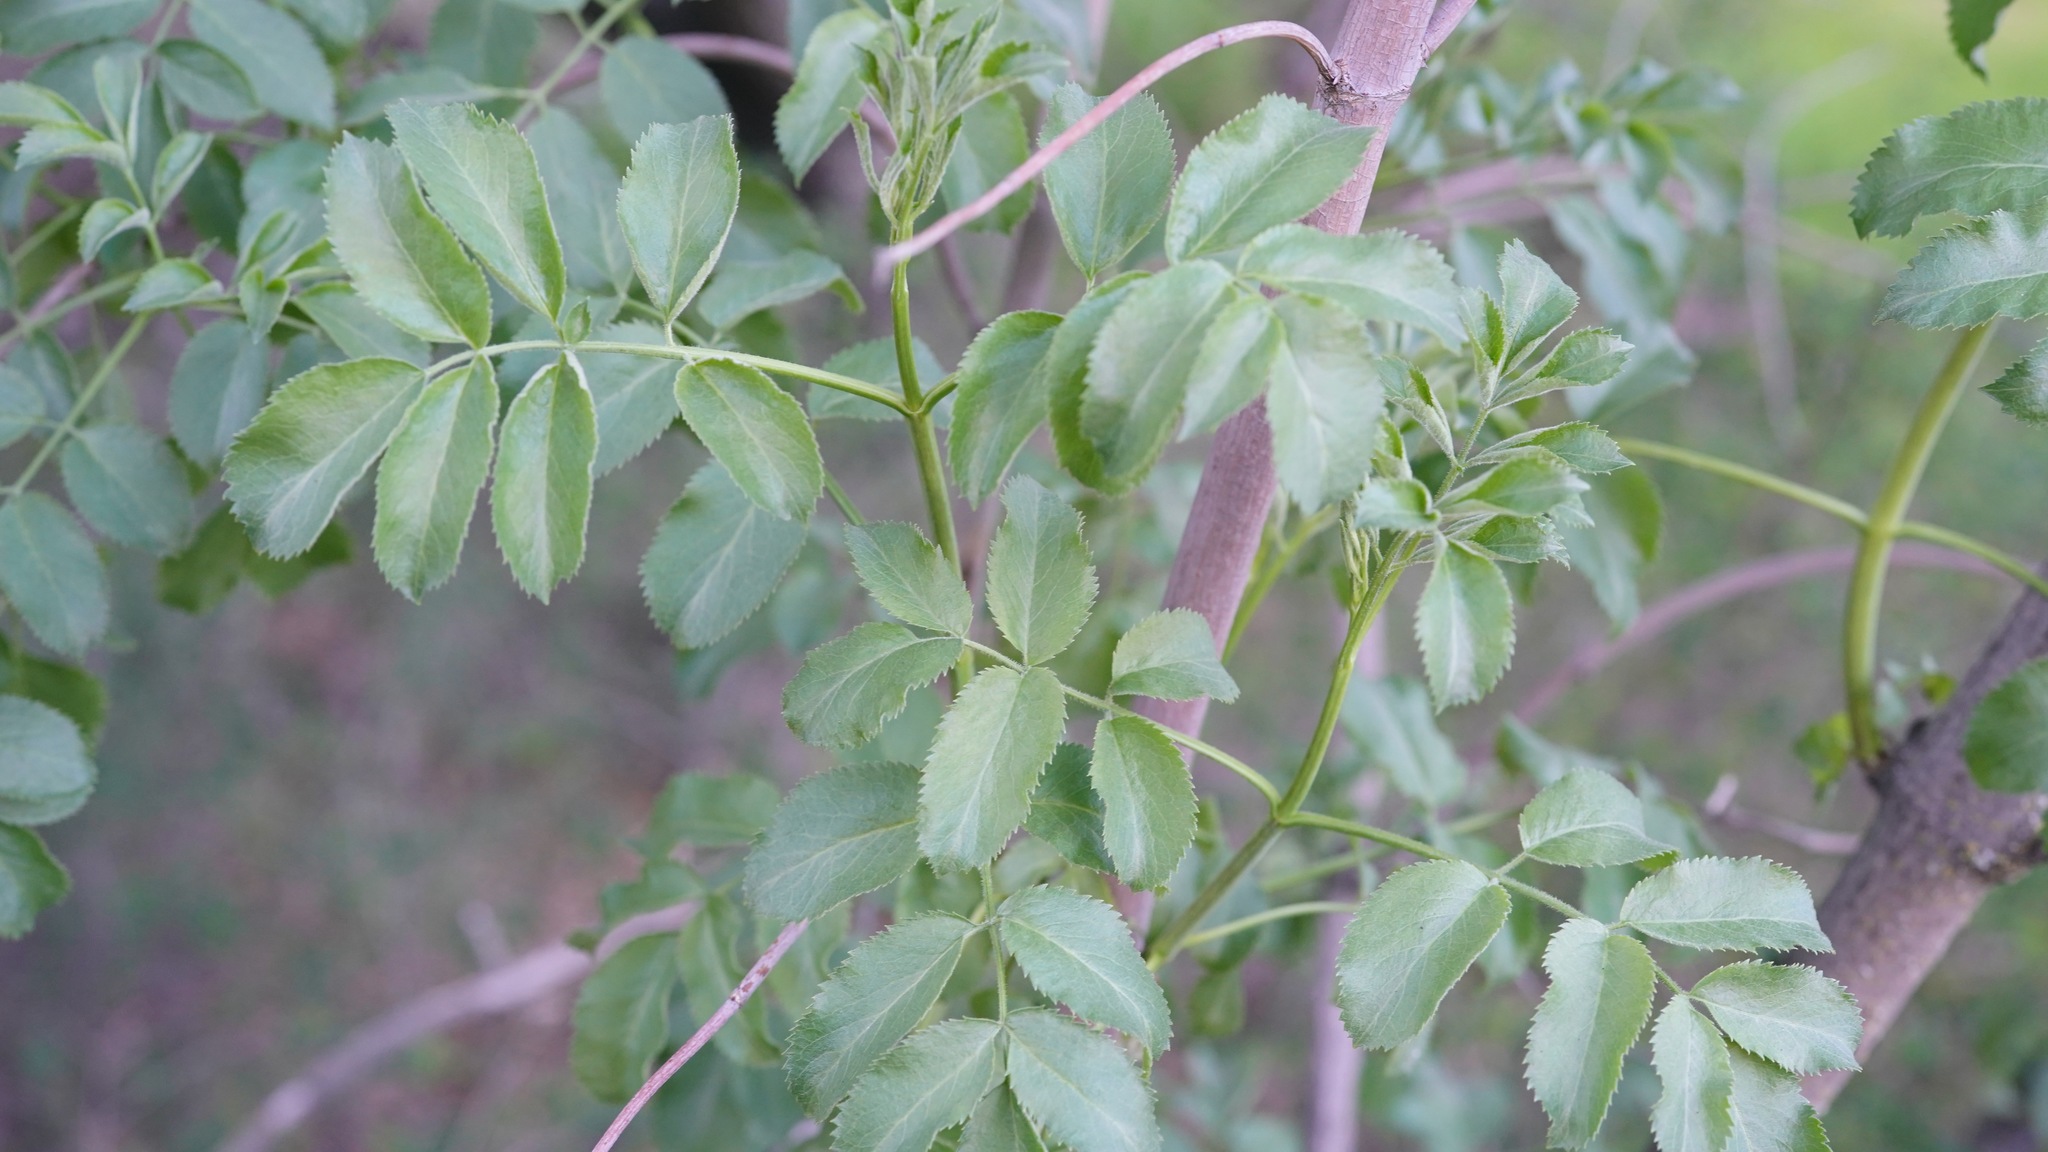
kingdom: Plantae
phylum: Tracheophyta
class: Magnoliopsida
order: Dipsacales
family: Viburnaceae
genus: Sambucus
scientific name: Sambucus cerulea
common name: Blue elder
